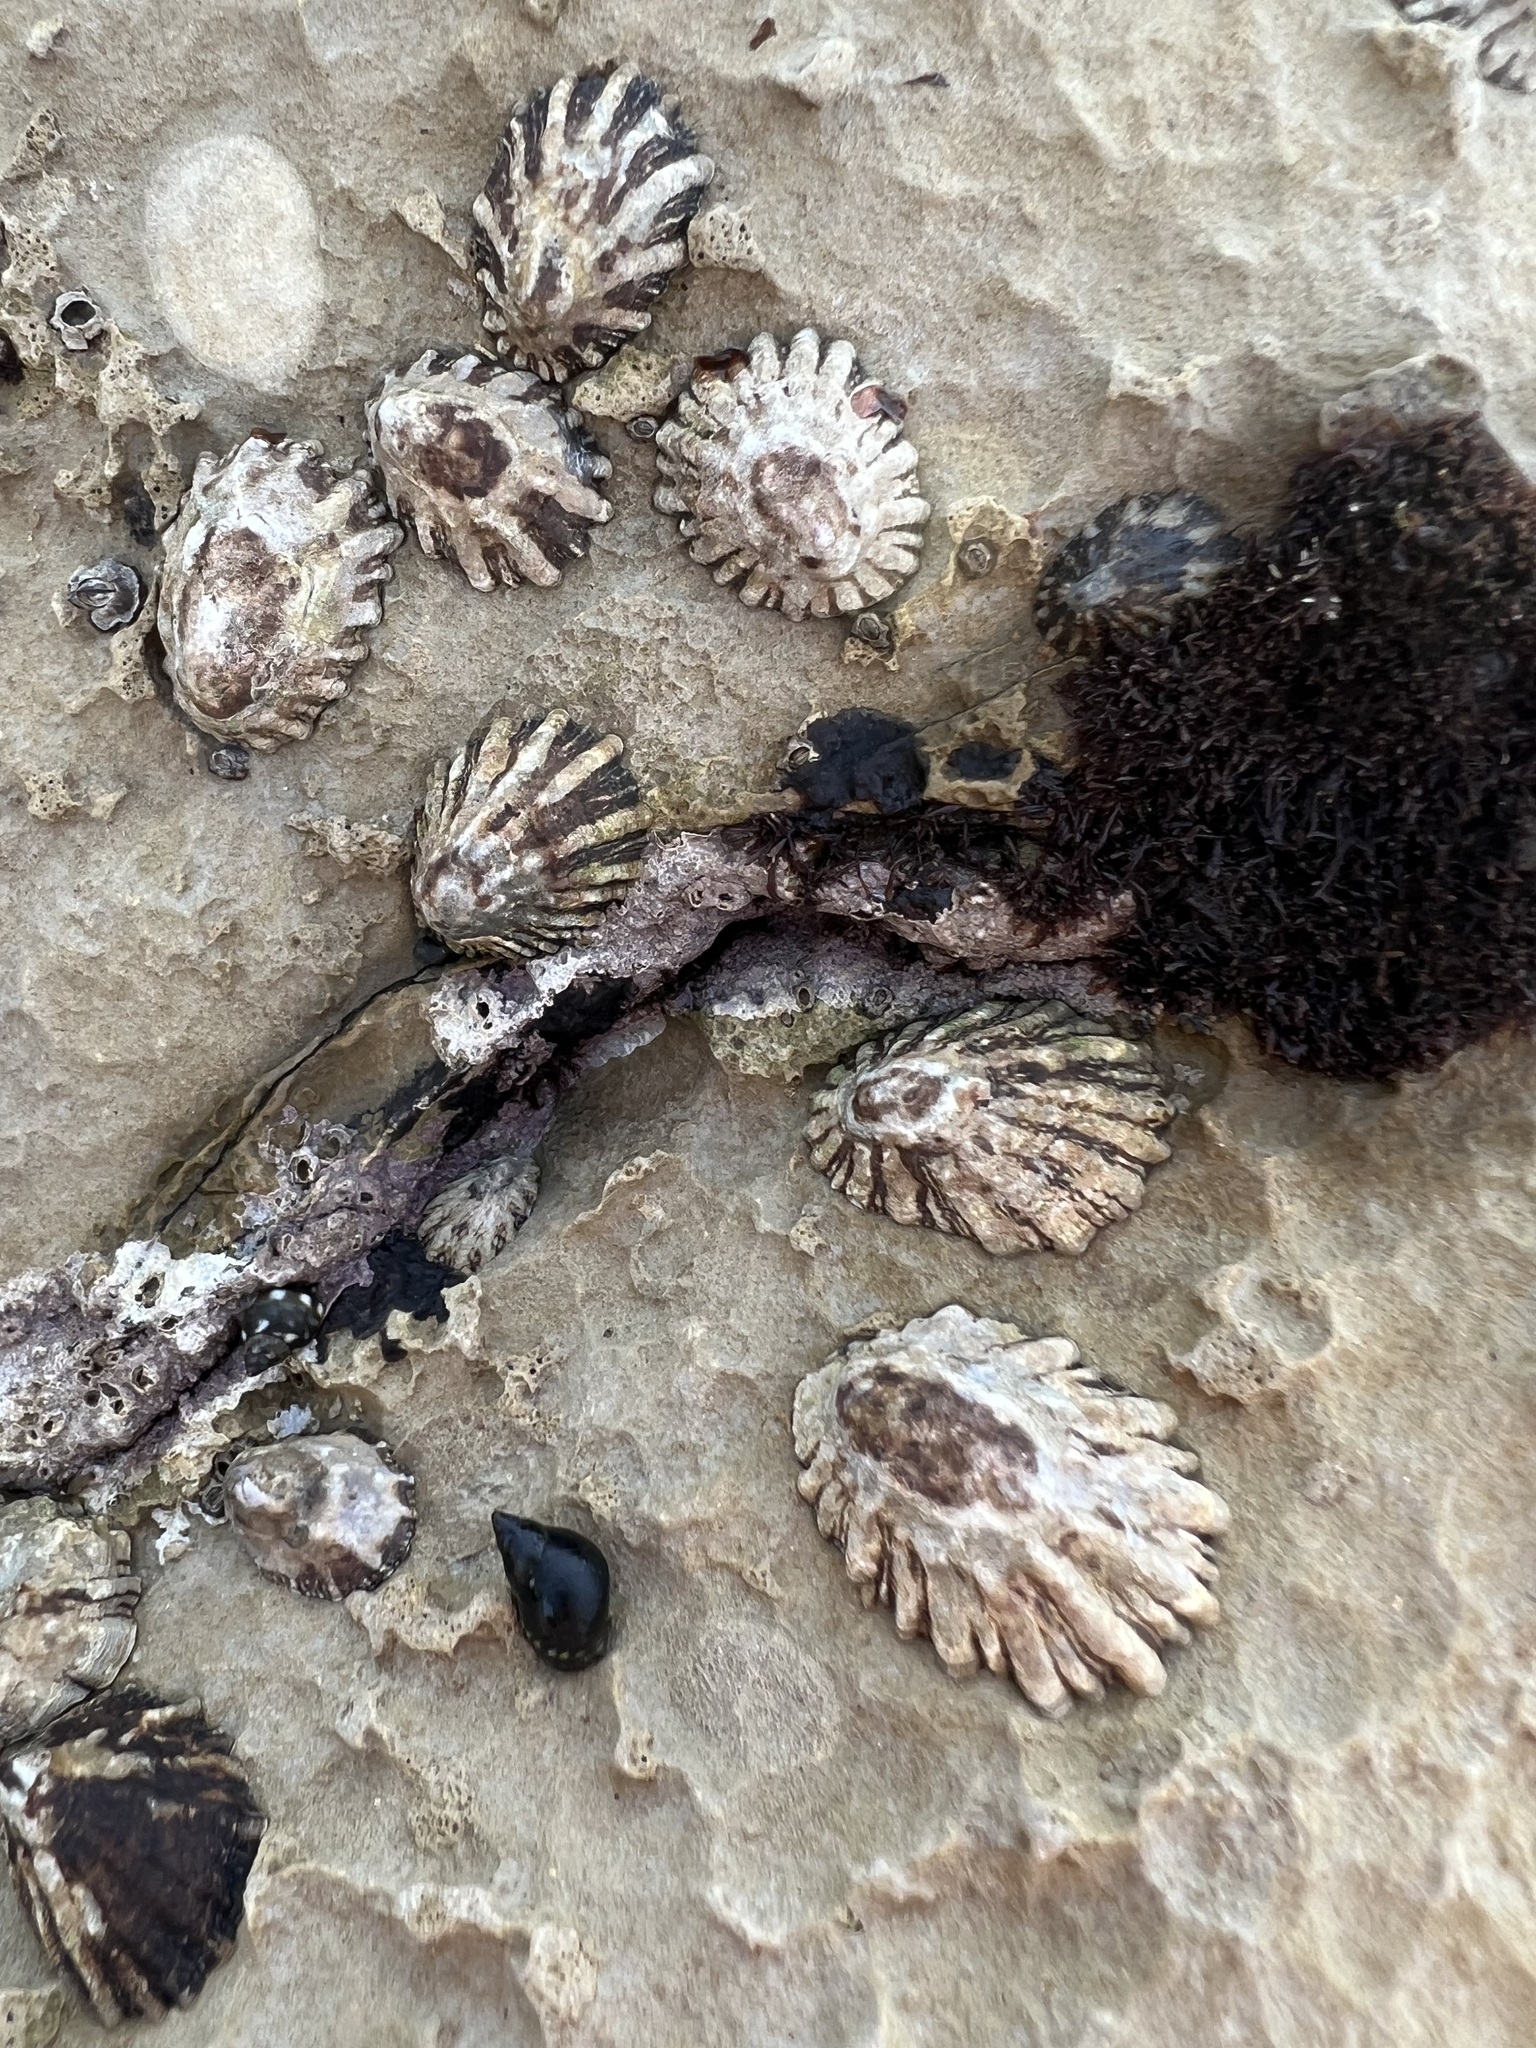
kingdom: Animalia
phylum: Mollusca
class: Gastropoda
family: Lottiidae
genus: Lottia
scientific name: Lottia scabra
